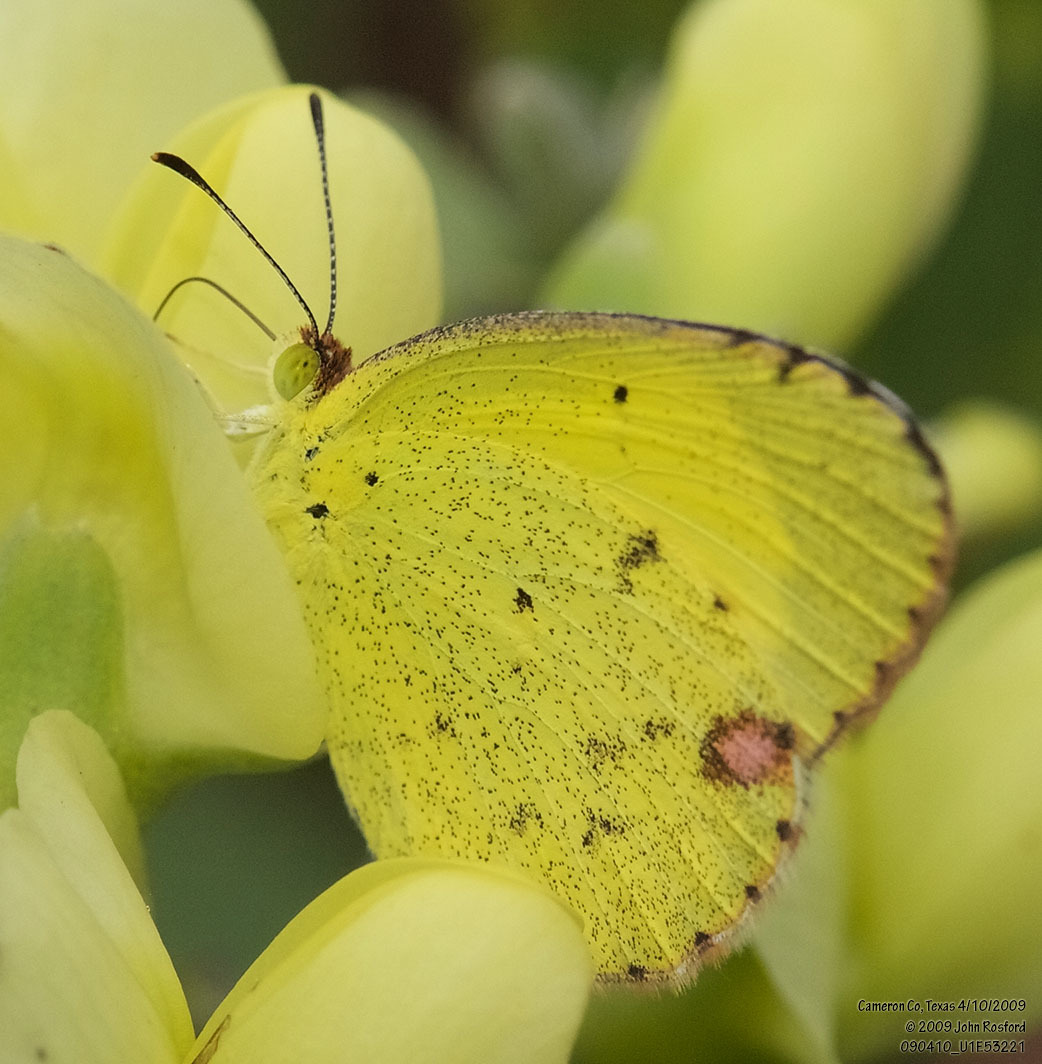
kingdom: Animalia
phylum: Arthropoda
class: Insecta
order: Lepidoptera
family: Pieridae
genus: Pyrisitia
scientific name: Pyrisitia lisa
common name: Little yellow
